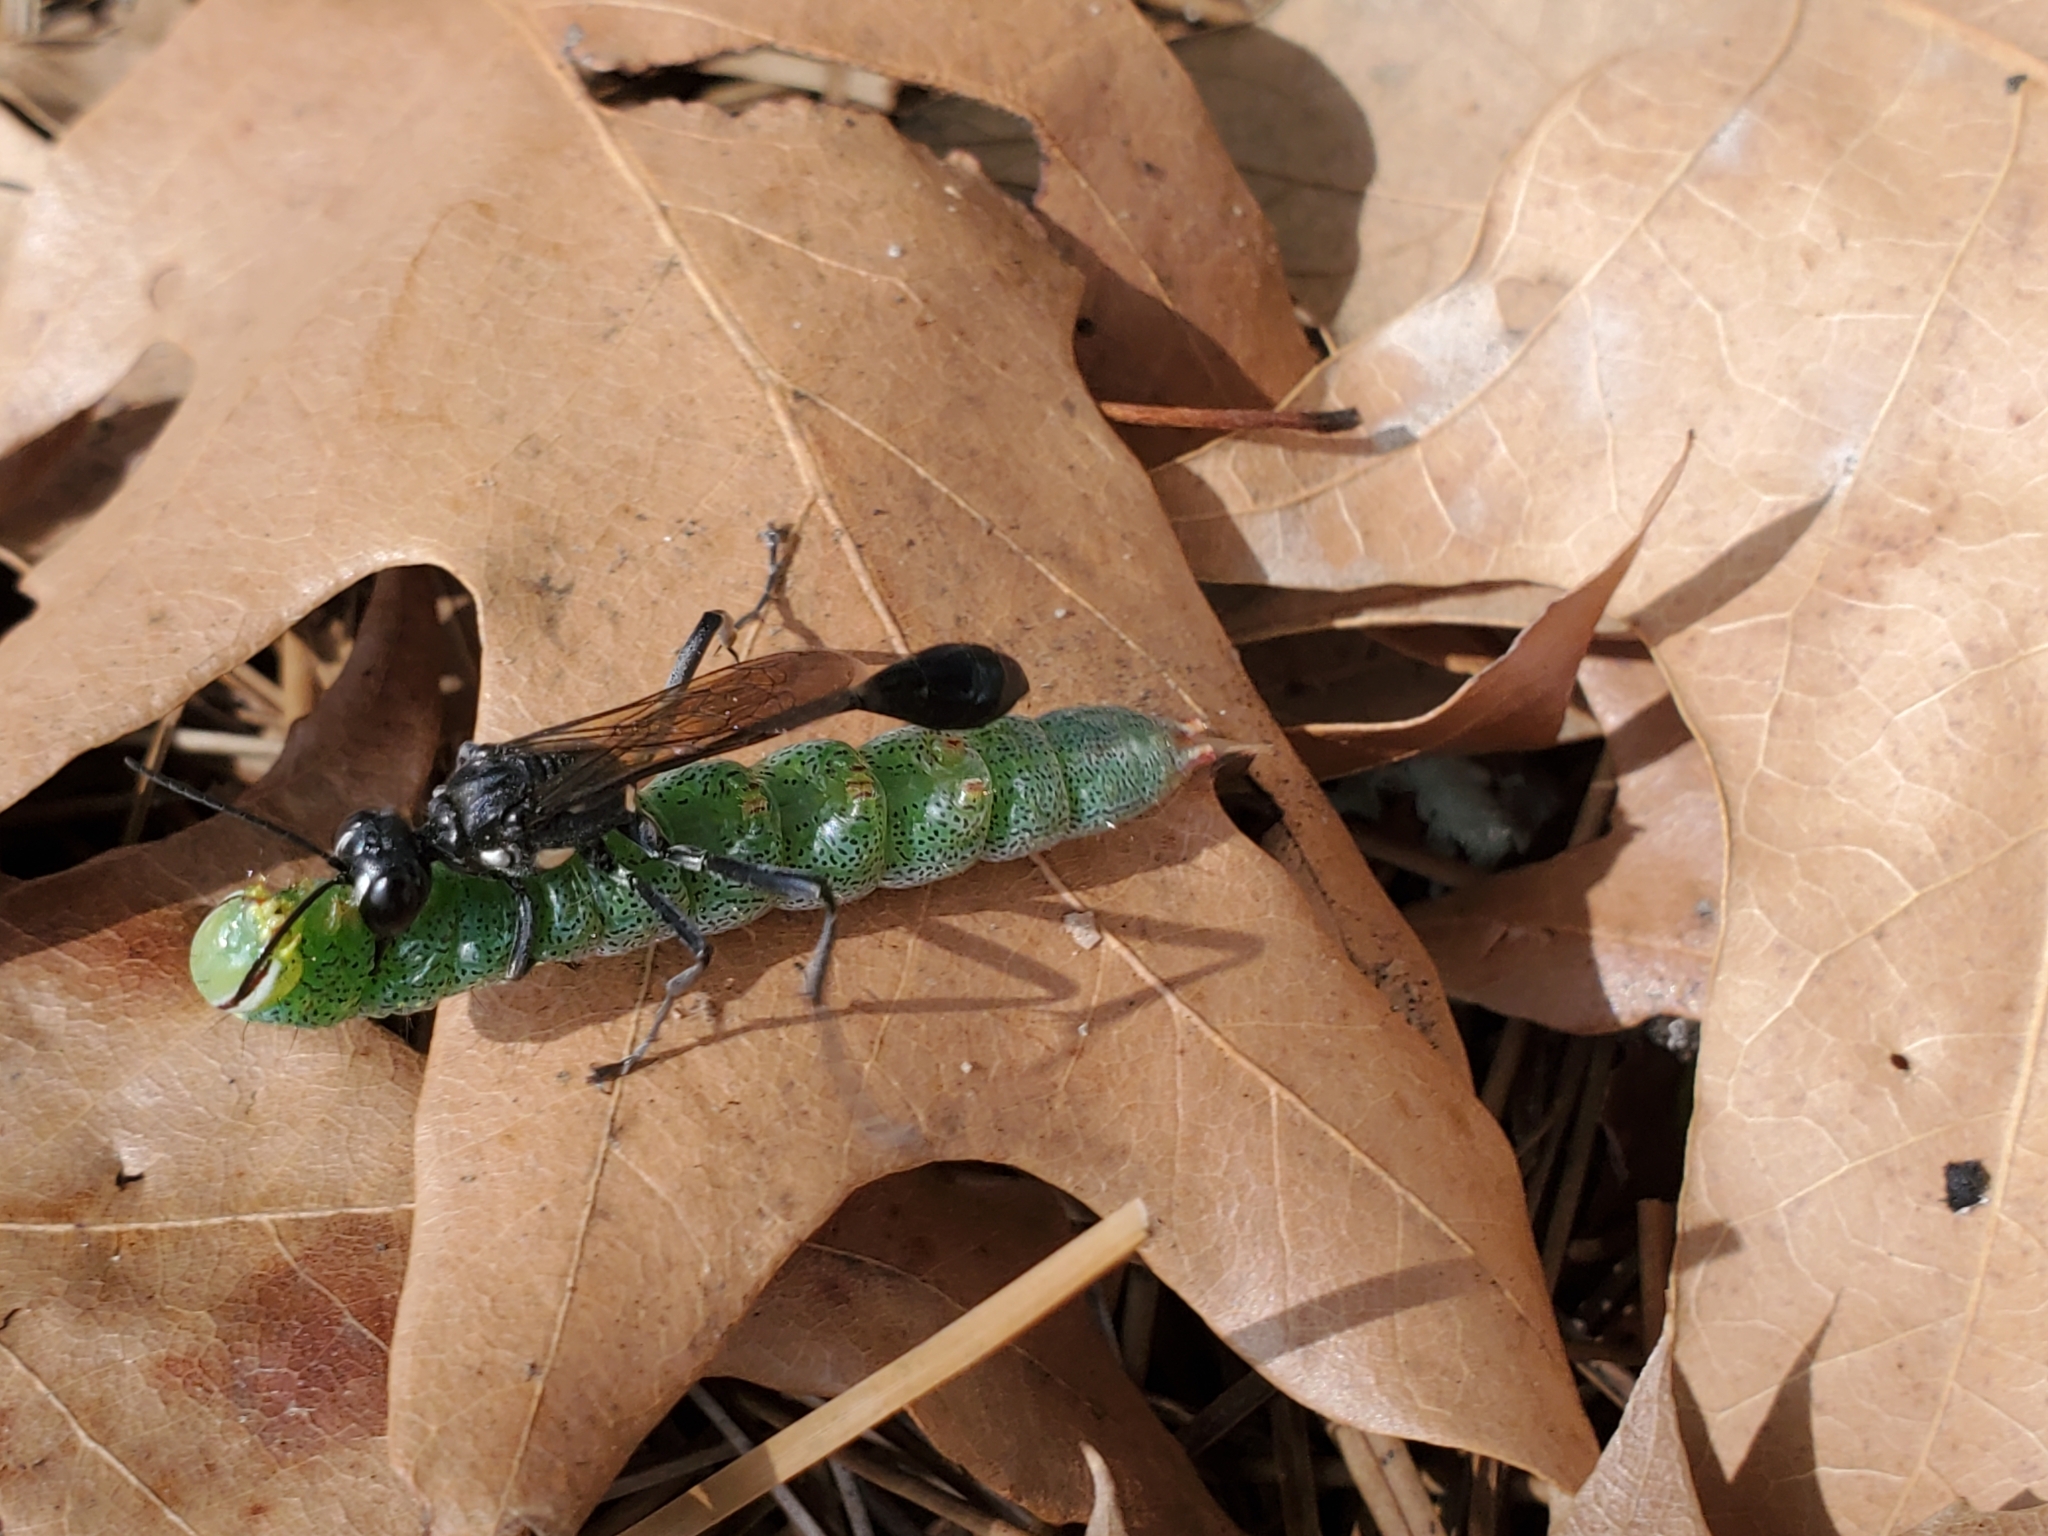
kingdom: Animalia
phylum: Arthropoda
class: Insecta
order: Hymenoptera
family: Sphecidae
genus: Eremnophila
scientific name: Eremnophila aureonotata
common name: Gold-marked thread-waisted wasp
